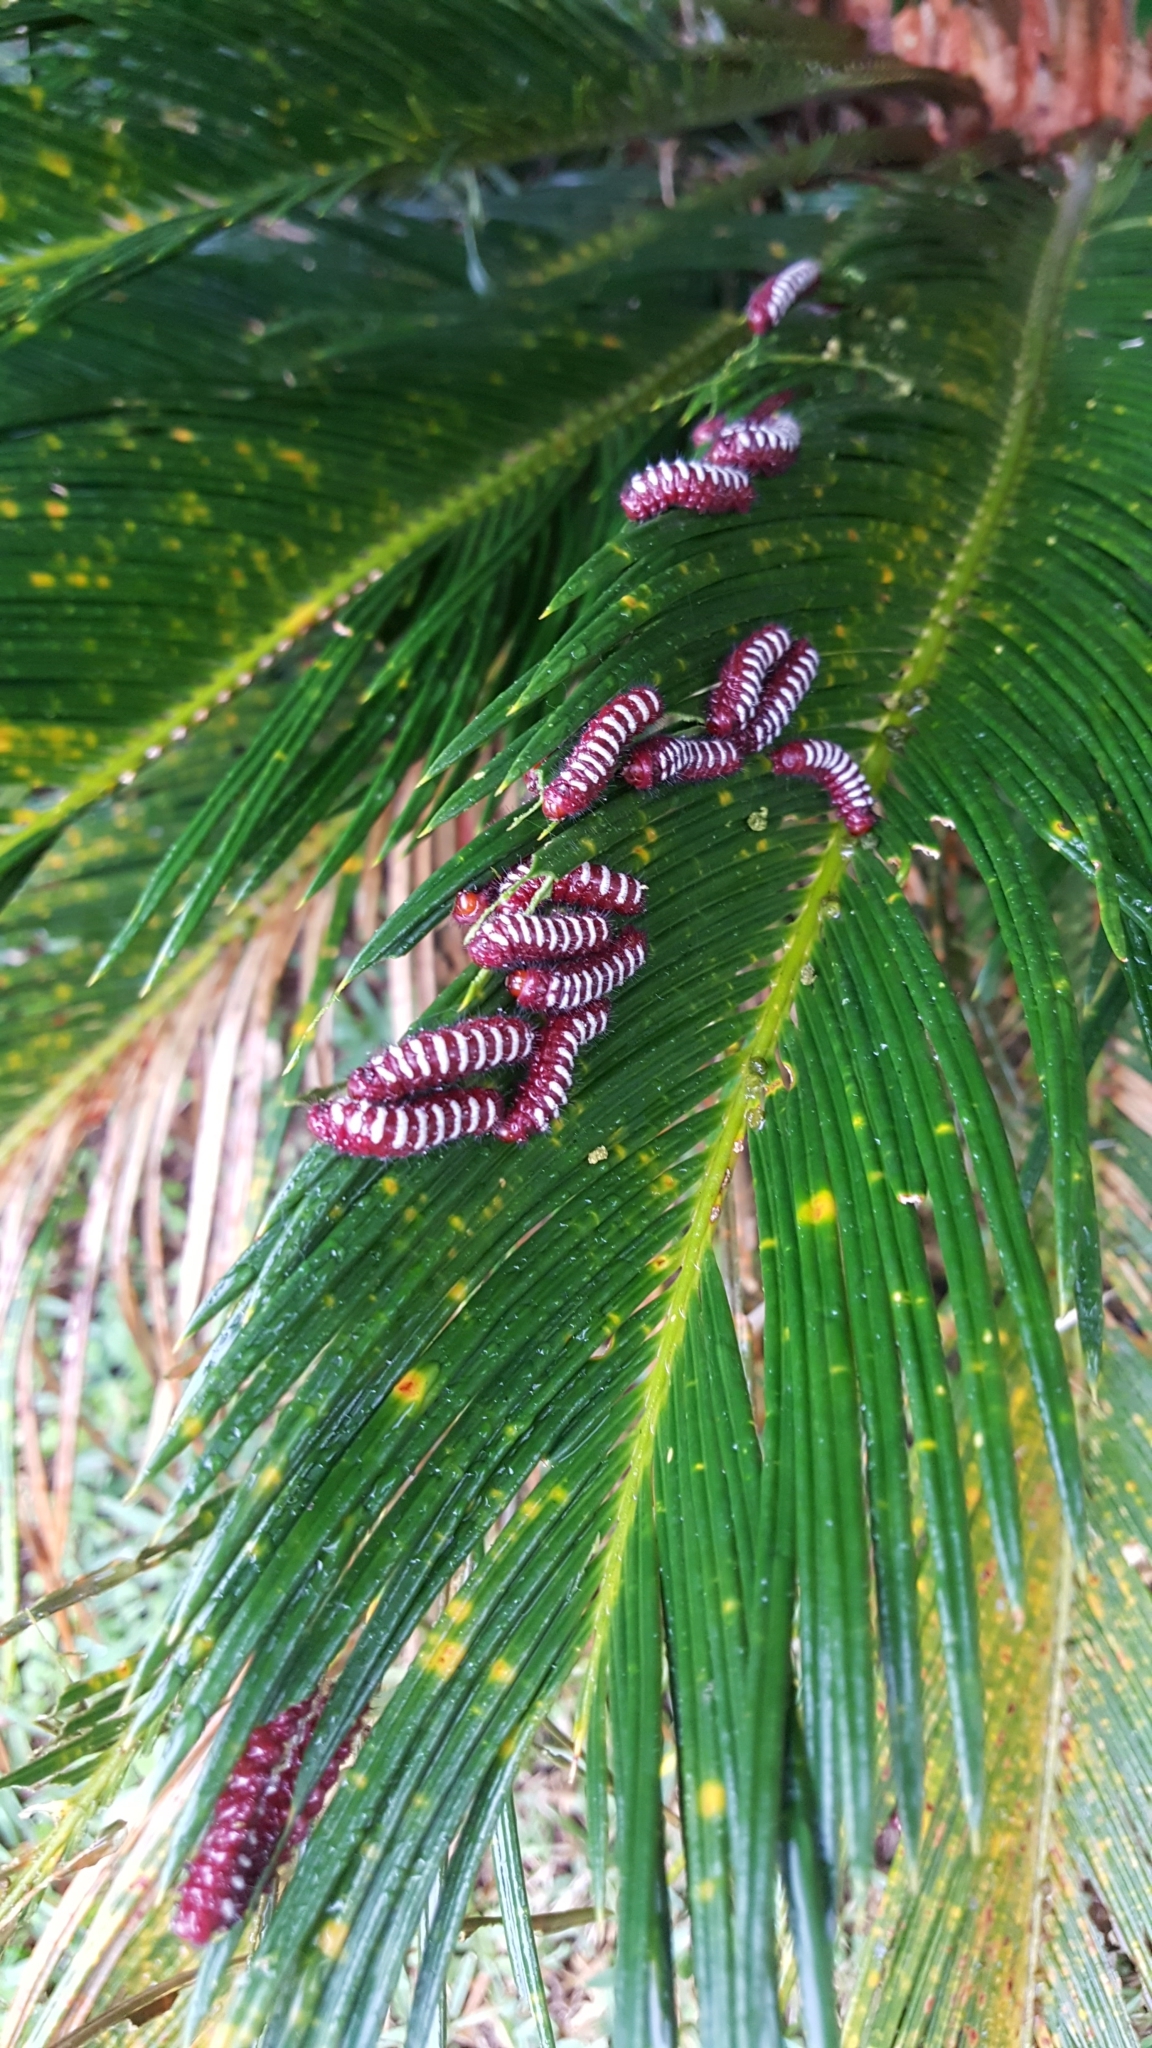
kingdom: Animalia
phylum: Arthropoda
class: Insecta
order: Lepidoptera
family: Lycaenidae
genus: Eumaeus
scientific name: Eumaeus childrenae
